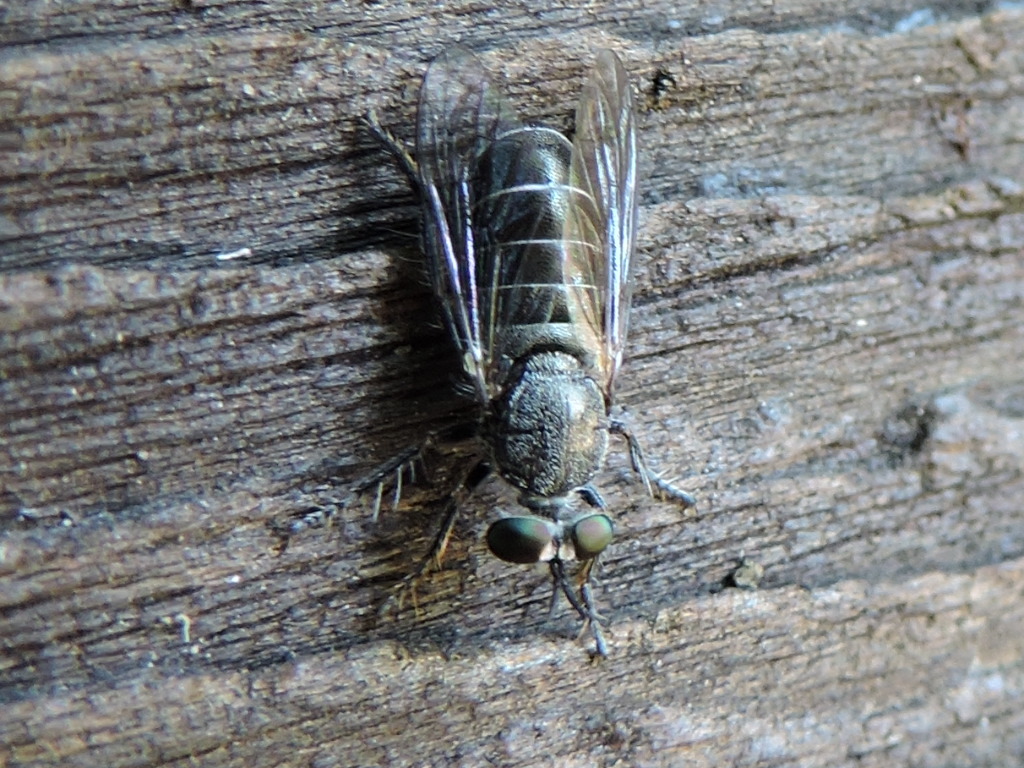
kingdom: Animalia
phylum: Arthropoda
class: Insecta
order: Diptera
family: Asilidae
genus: Atomosia
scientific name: Atomosia melanopogon
